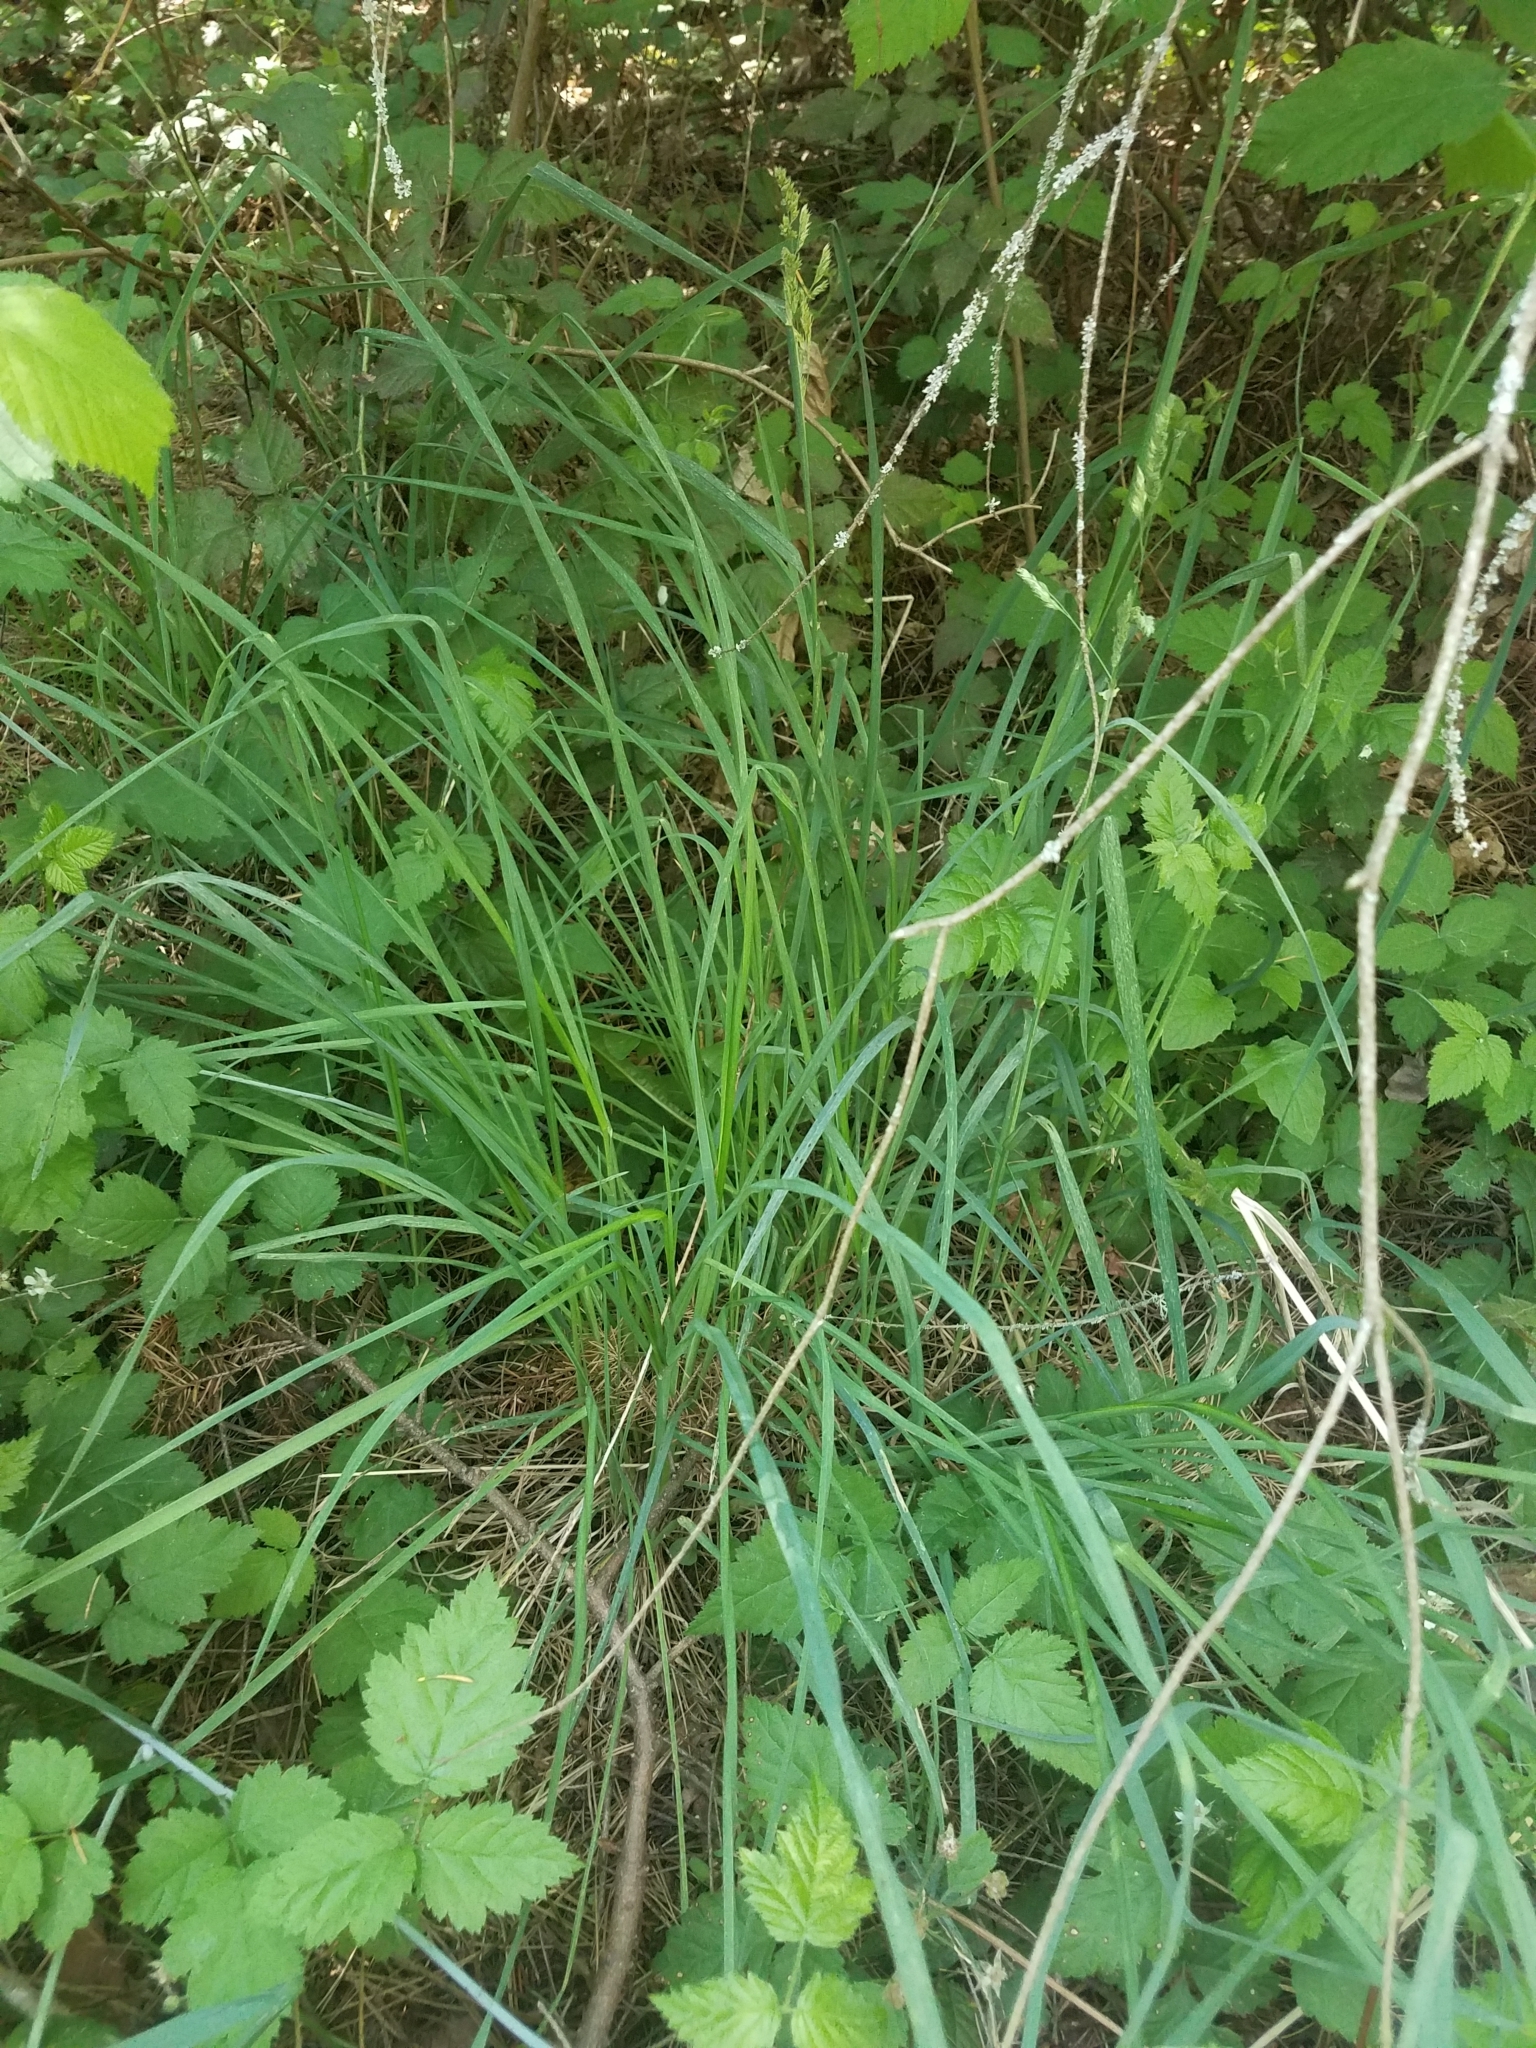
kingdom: Plantae
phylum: Tracheophyta
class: Liliopsida
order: Poales
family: Poaceae
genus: Dactylis
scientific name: Dactylis glomerata
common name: Orchardgrass
